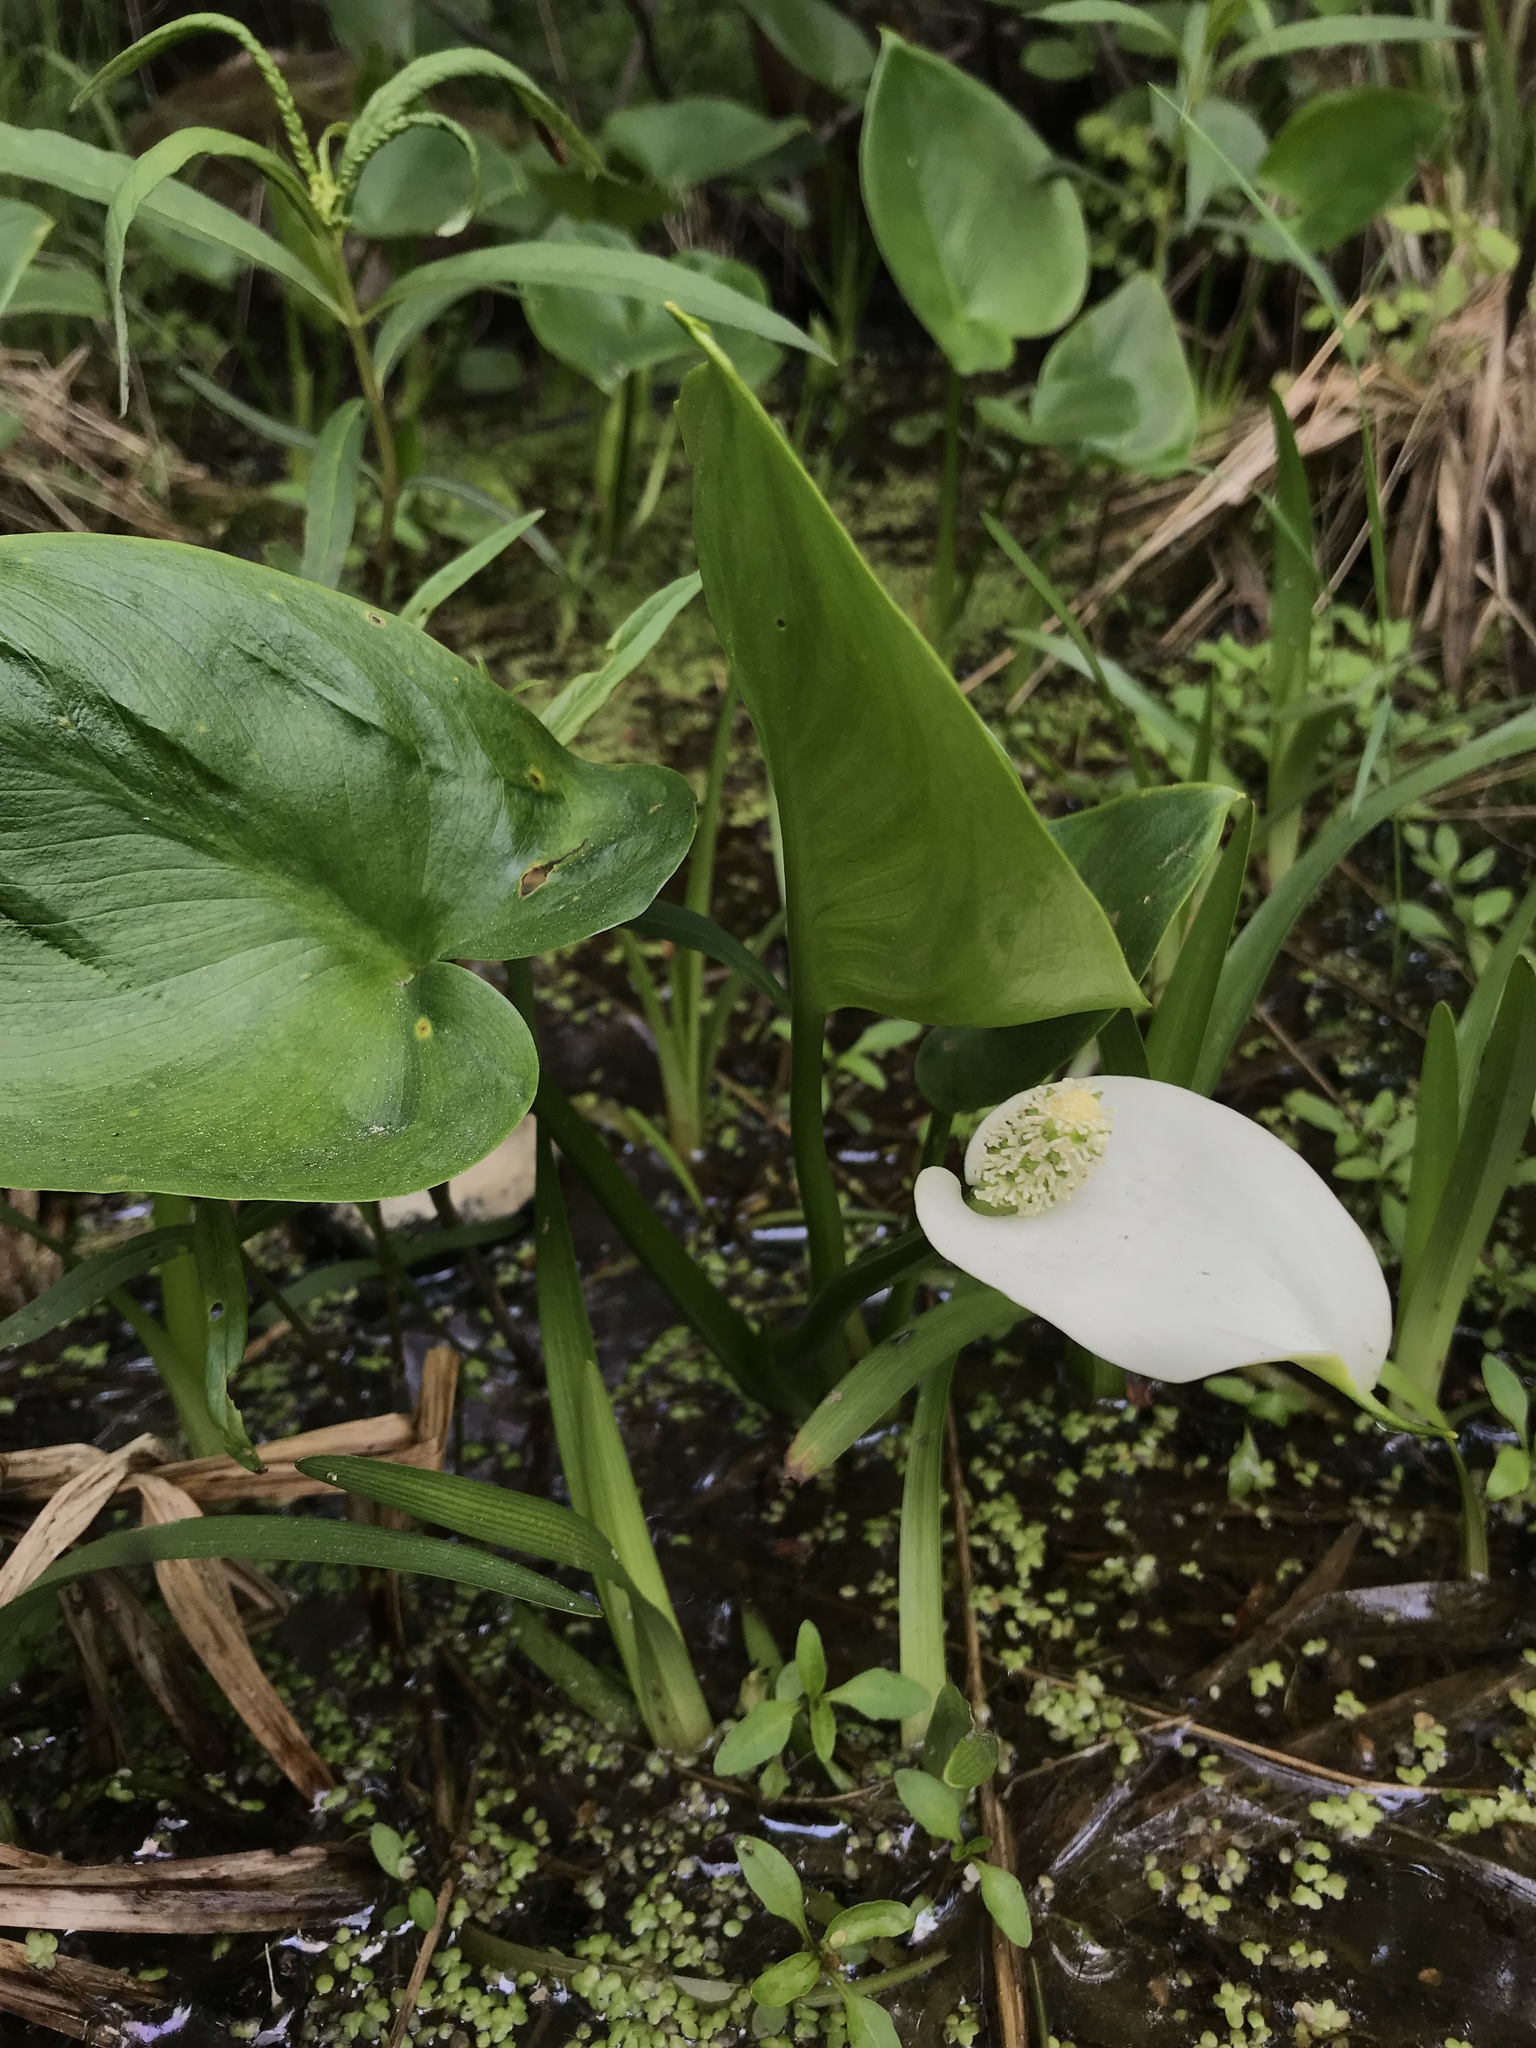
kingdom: Plantae
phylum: Tracheophyta
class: Liliopsida
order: Alismatales
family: Araceae
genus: Calla
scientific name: Calla palustris
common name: Bog arum
